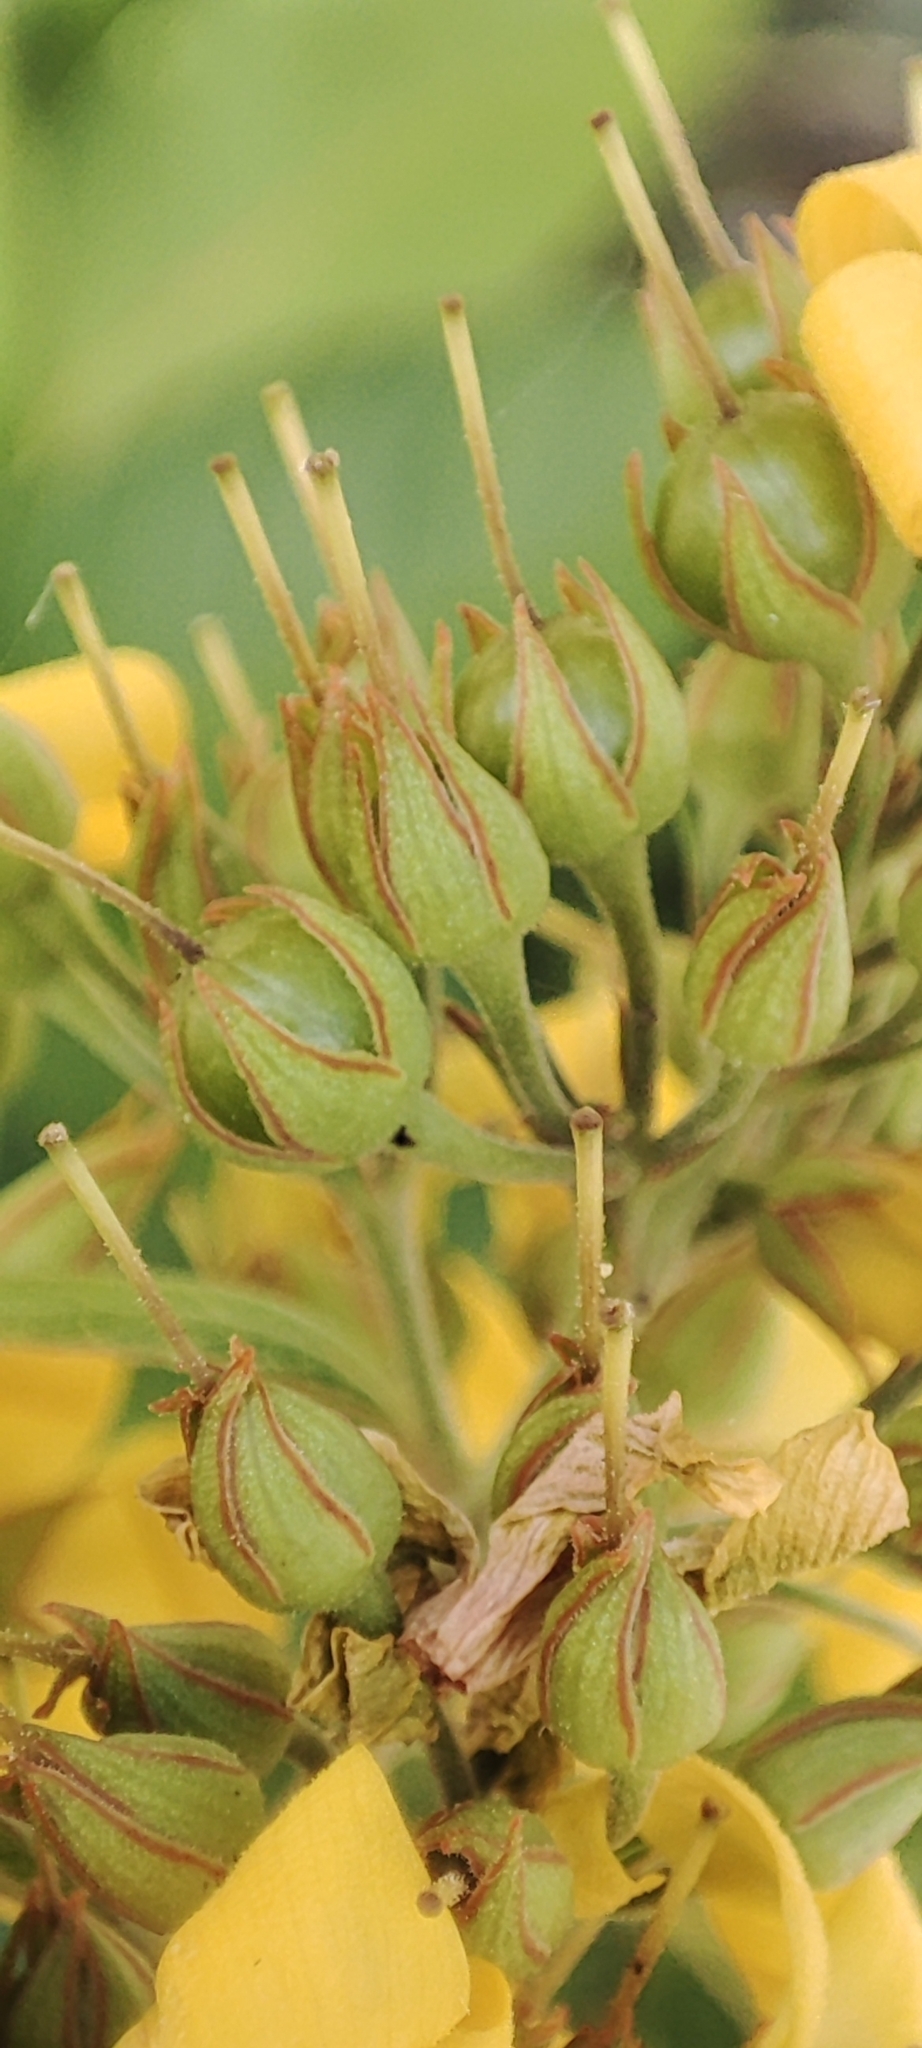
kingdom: Plantae
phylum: Tracheophyta
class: Magnoliopsida
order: Ericales
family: Primulaceae
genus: Lysimachia
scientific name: Lysimachia vulgaris
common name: Yellow loosestrife
